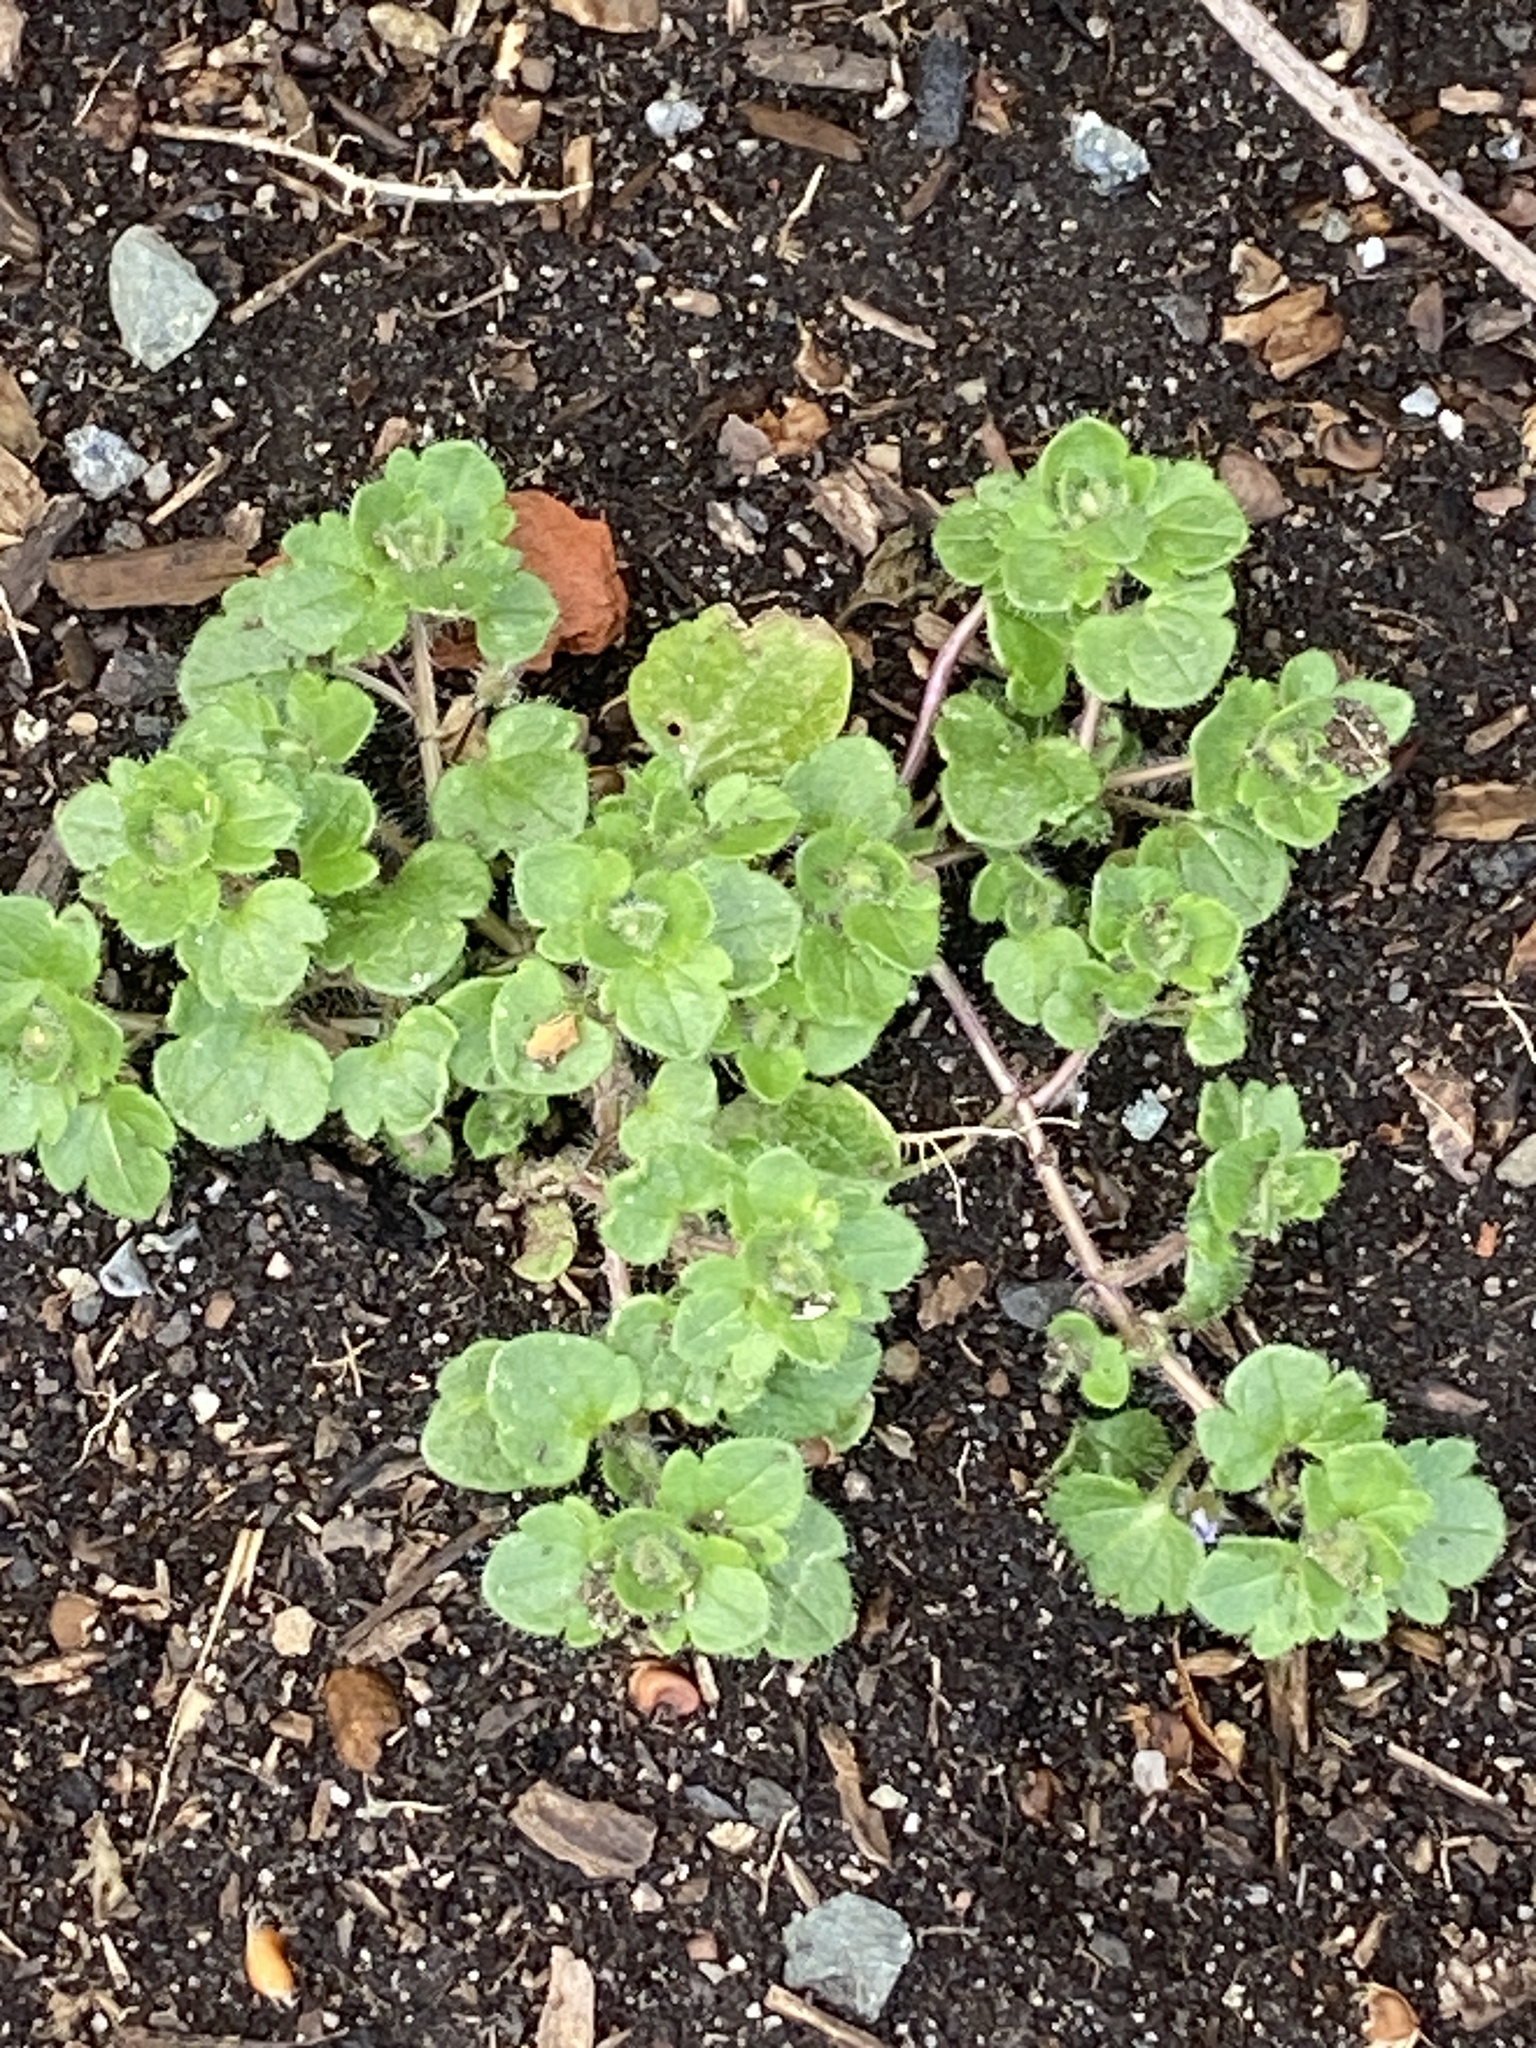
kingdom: Plantae
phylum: Tracheophyta
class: Magnoliopsida
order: Lamiales
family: Plantaginaceae
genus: Veronica
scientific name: Veronica hederifolia
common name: Ivy-leaved speedwell
